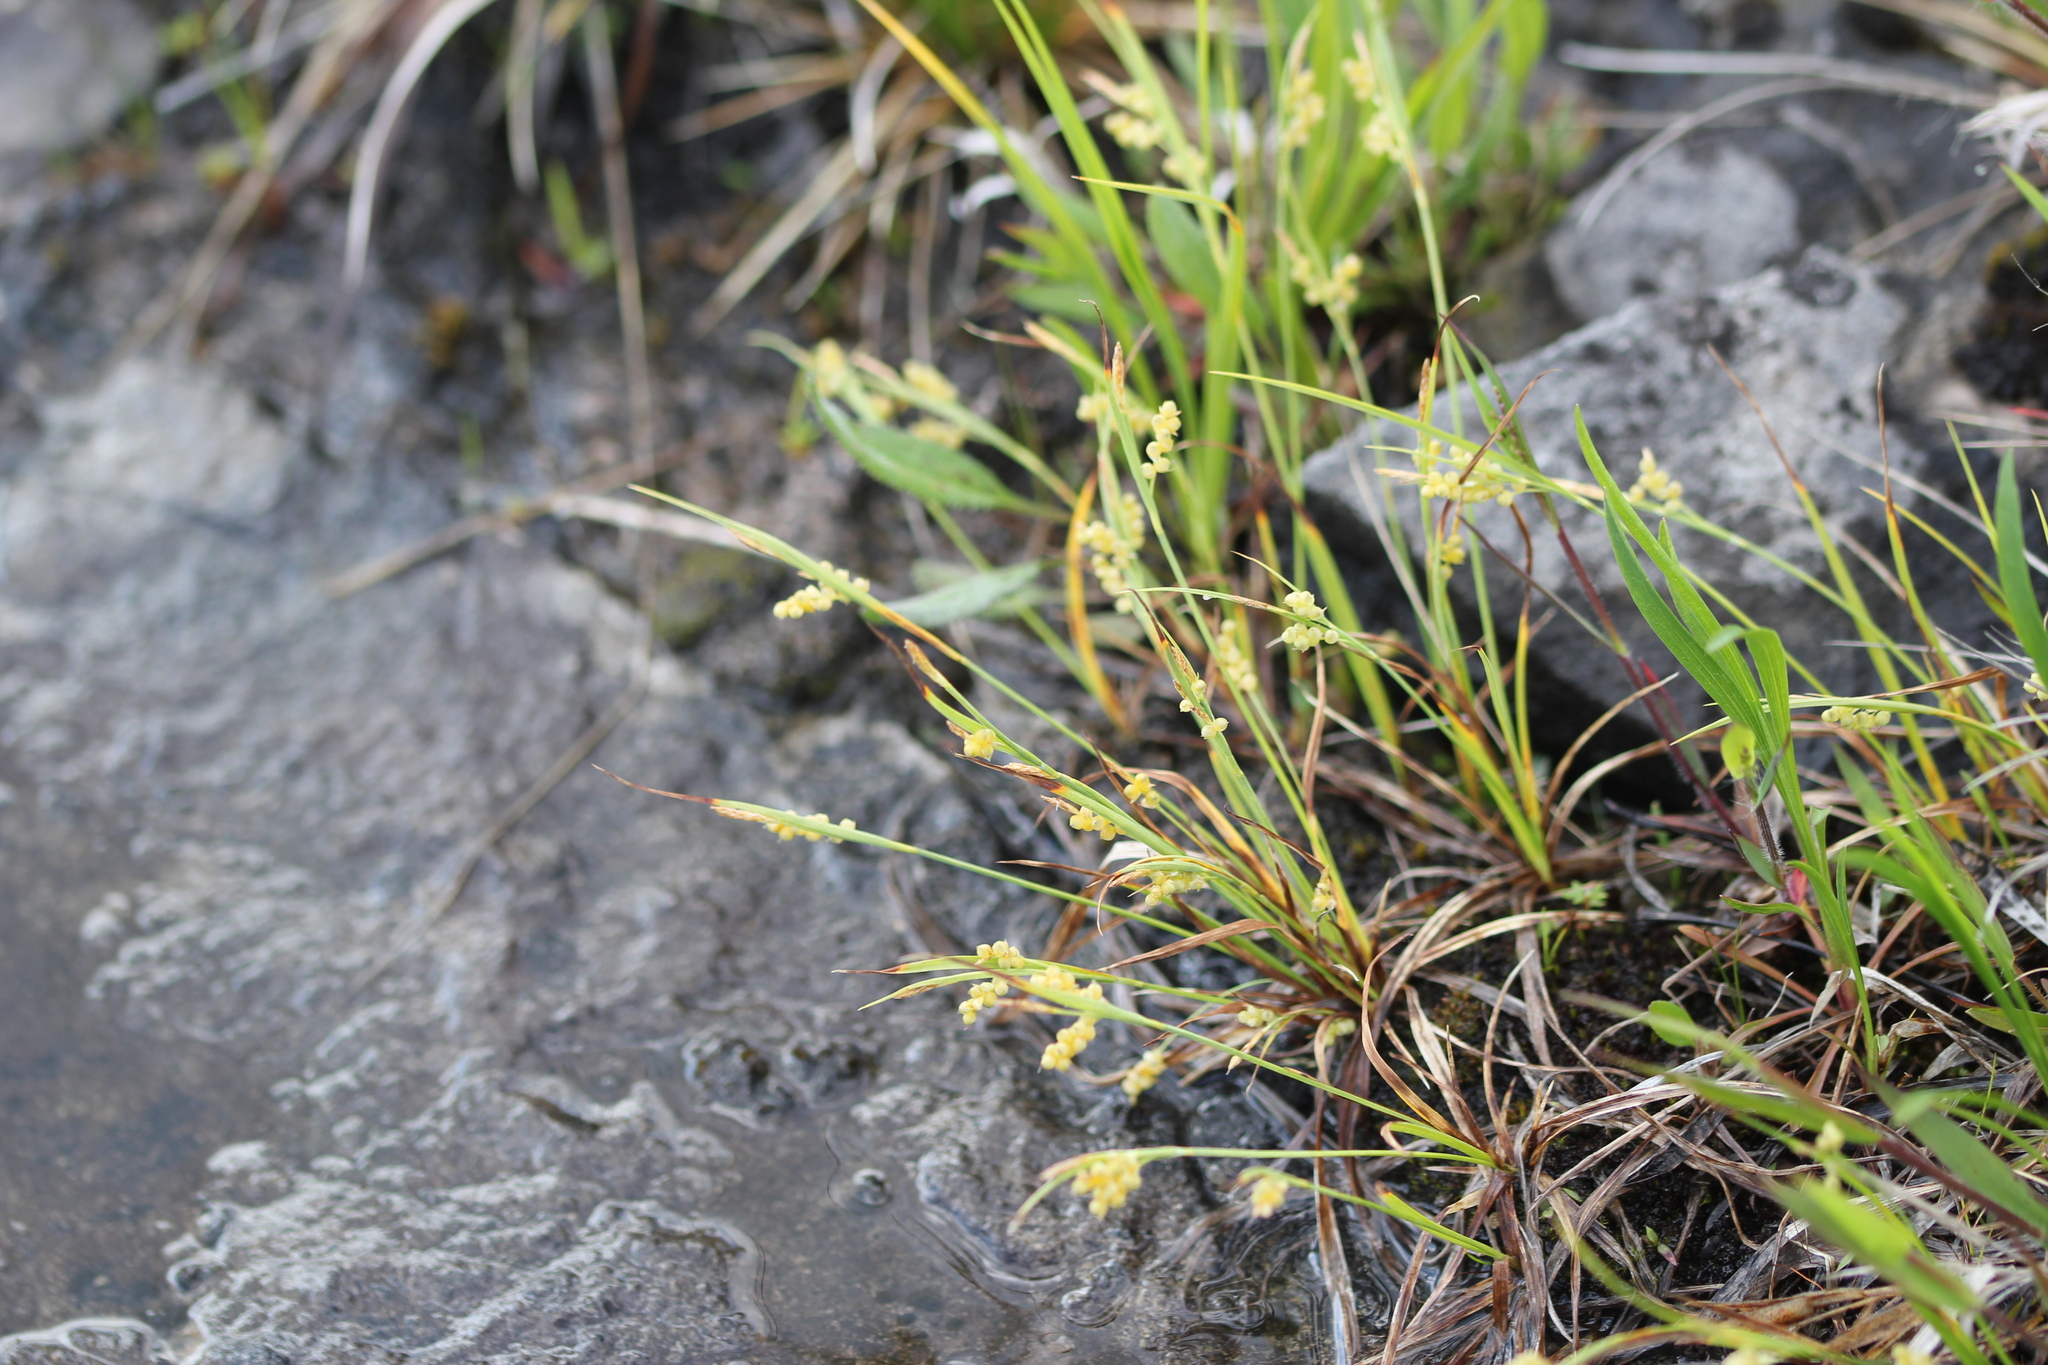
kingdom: Plantae
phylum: Tracheophyta
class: Liliopsida
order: Poales
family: Cyperaceae
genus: Carex
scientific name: Carex aurea
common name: Golden sedge
